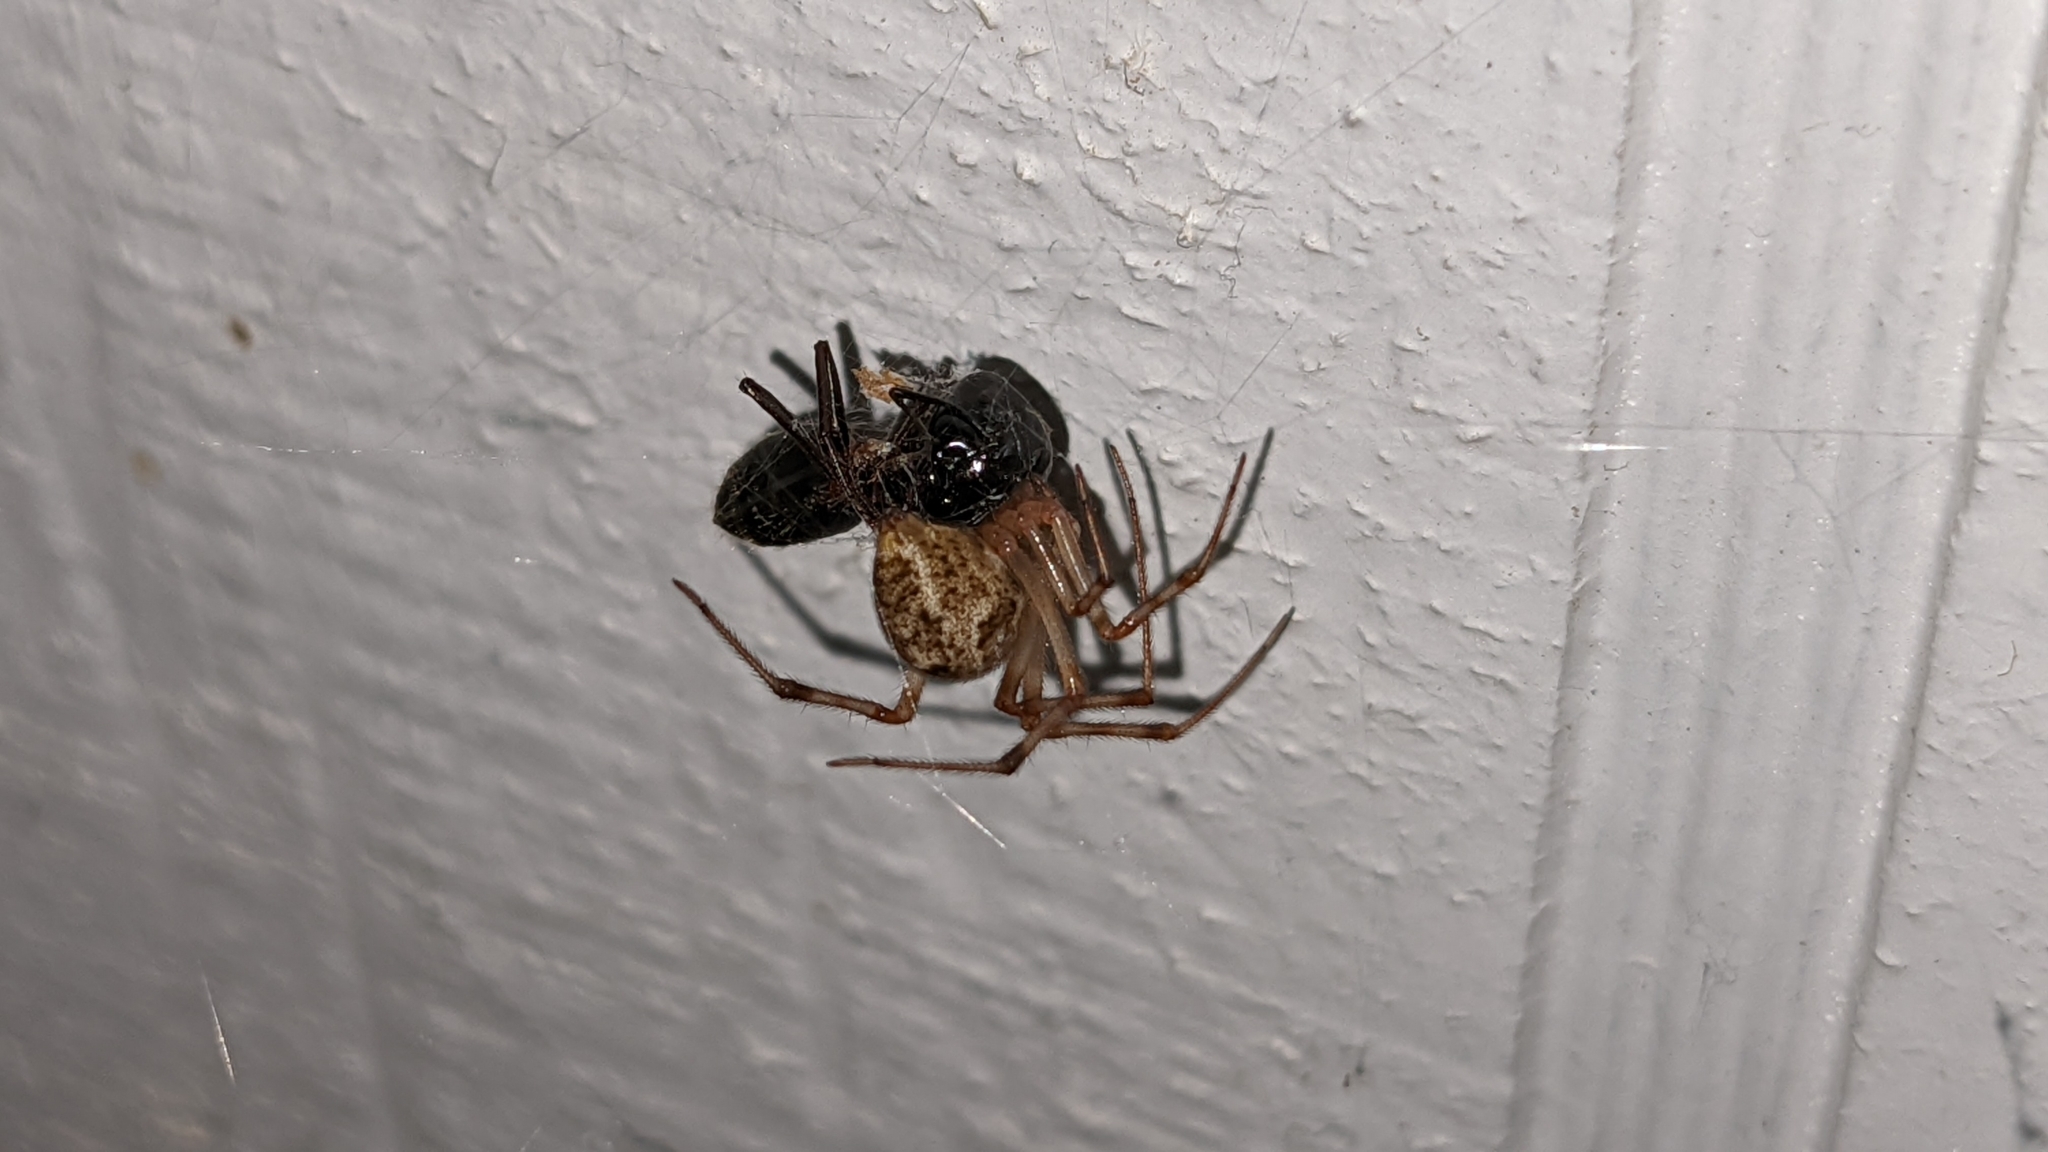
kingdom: Animalia
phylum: Arthropoda
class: Arachnida
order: Araneae
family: Theridiidae
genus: Parasteatoda
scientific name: Parasteatoda tepidariorum
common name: Common house spider
